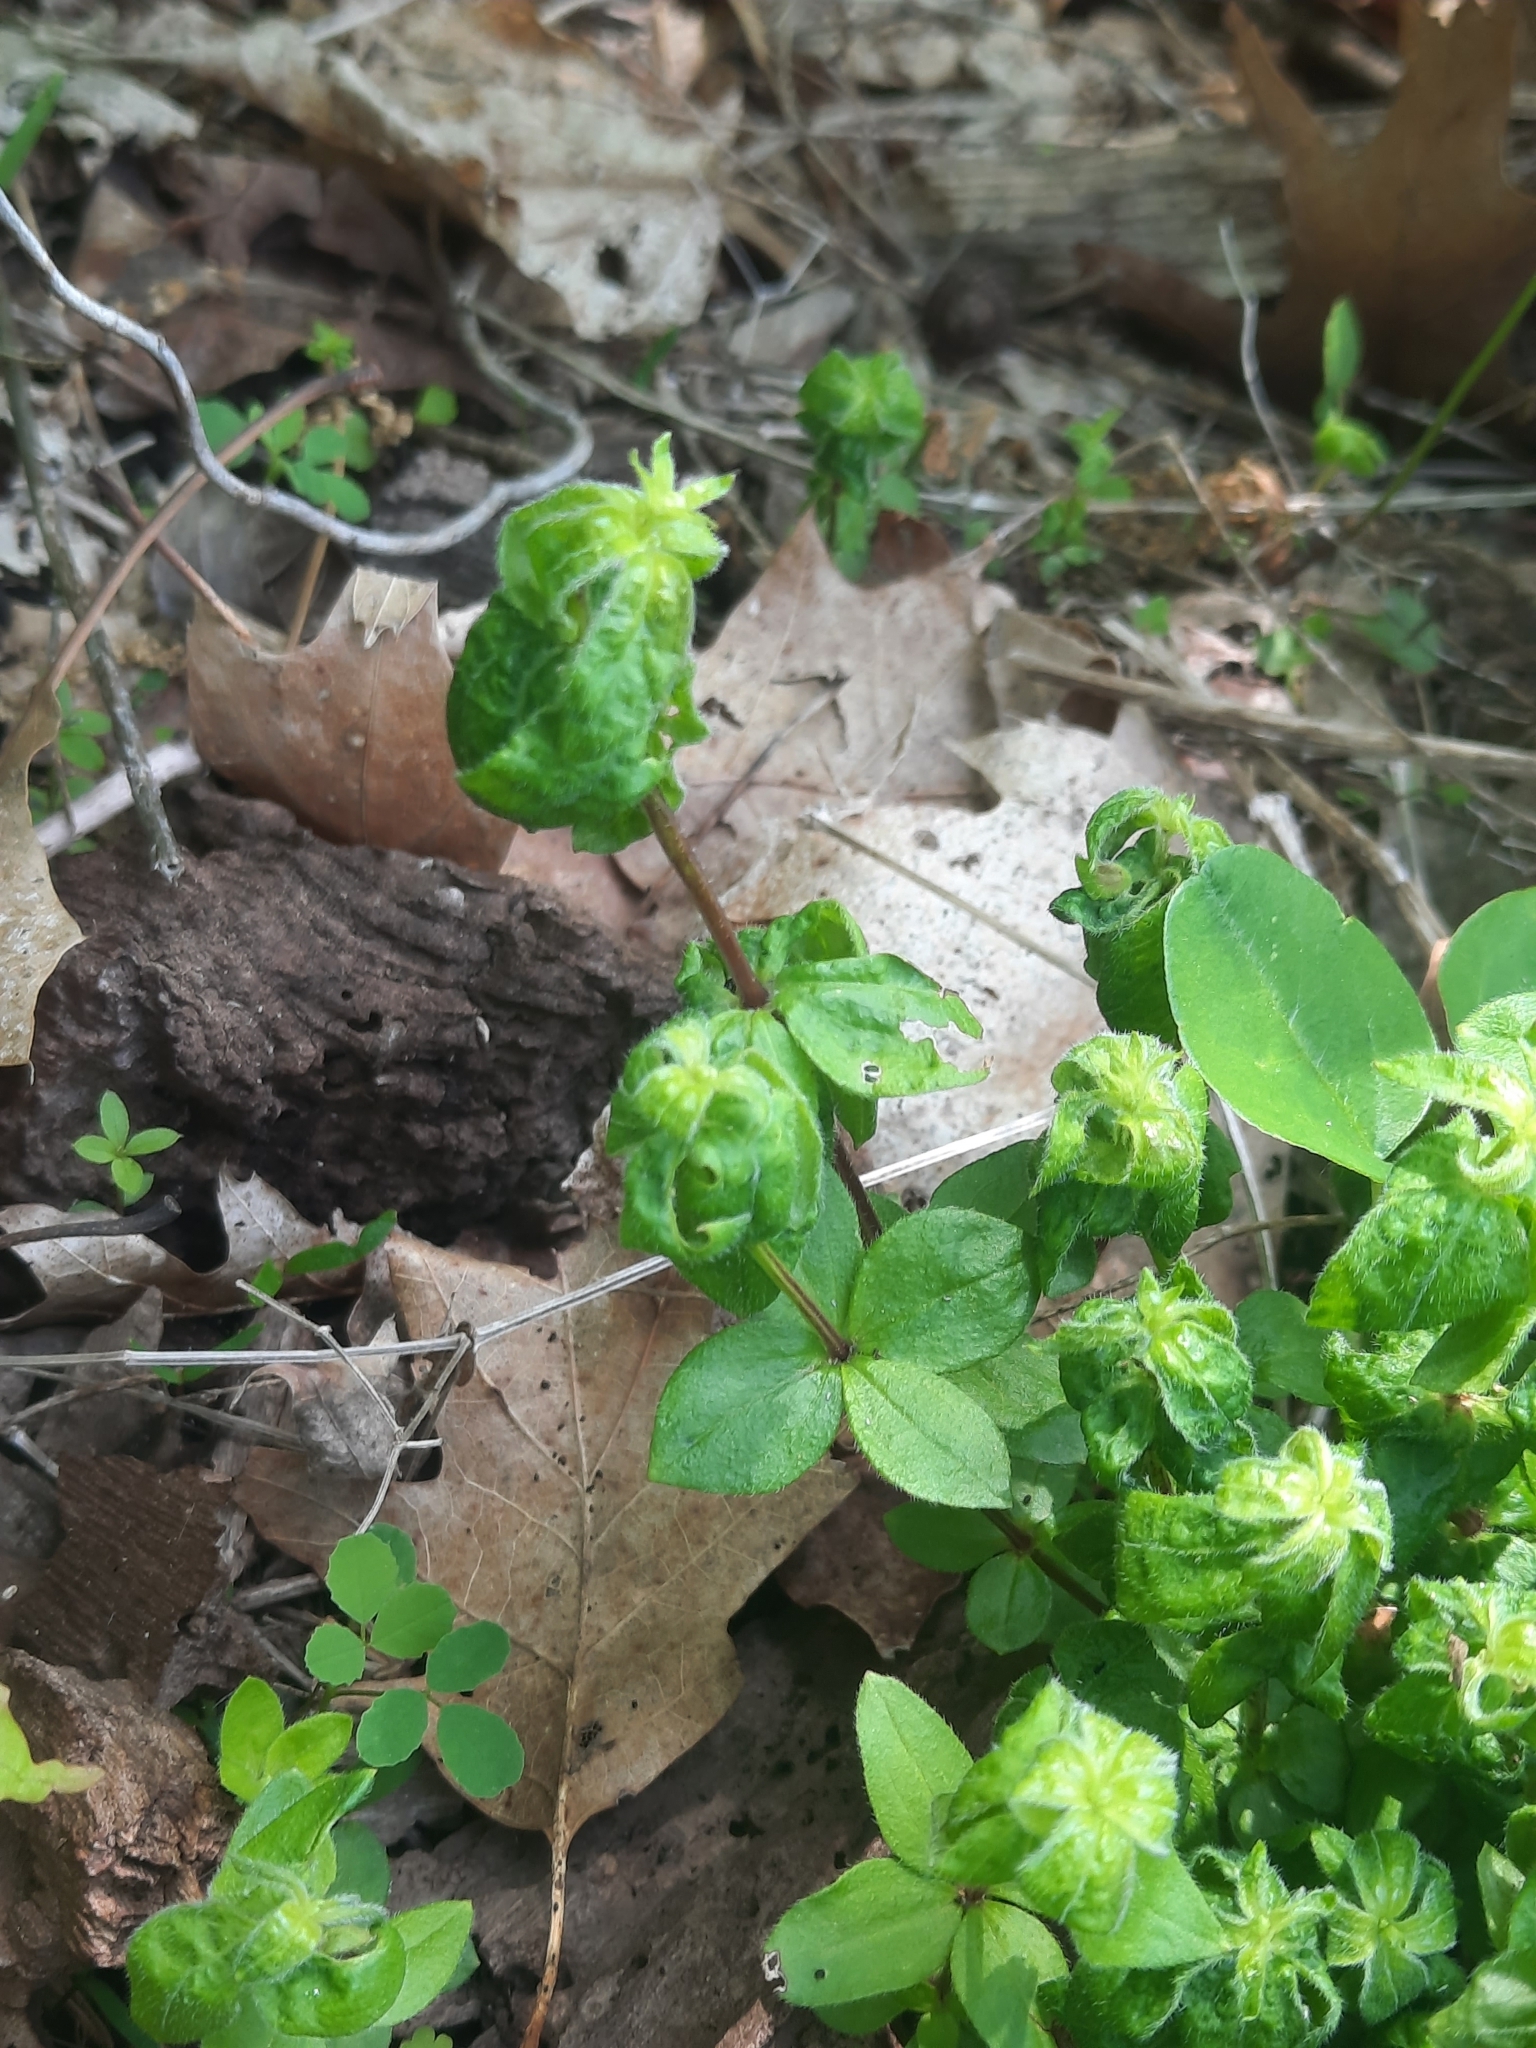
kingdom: Plantae
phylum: Tracheophyta
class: Magnoliopsida
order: Gentianales
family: Rubiaceae
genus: Galium
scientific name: Galium circaezans
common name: Forest bedstraw
